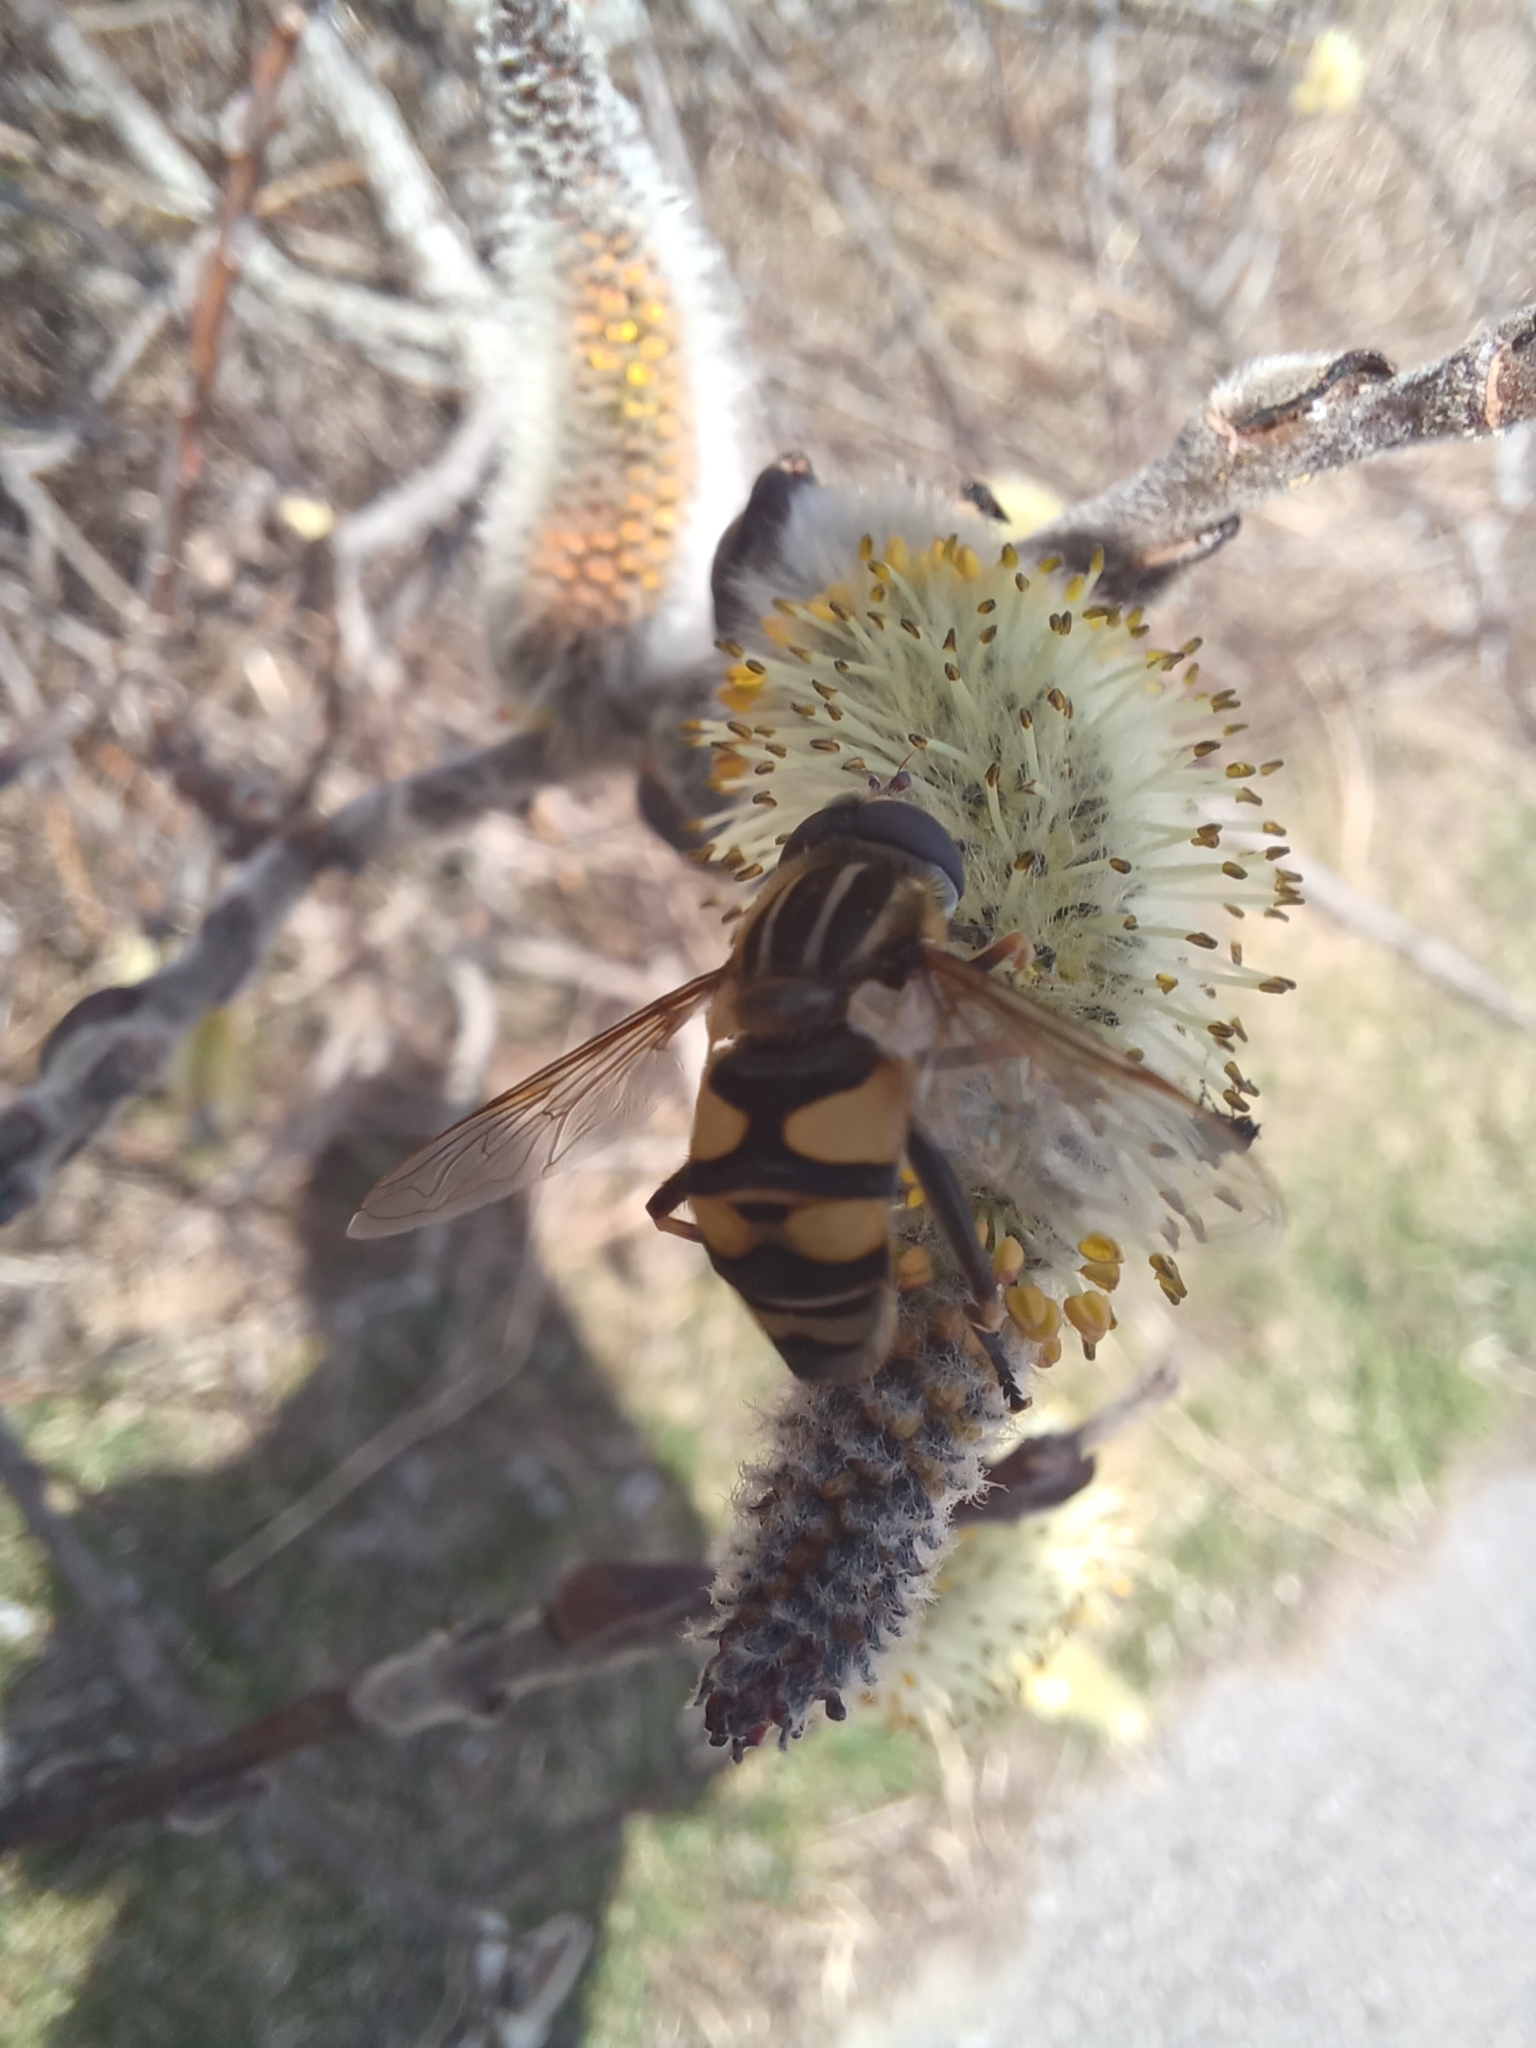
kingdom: Animalia
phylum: Arthropoda
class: Insecta
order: Diptera
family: Syrphidae
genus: Helophilus
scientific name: Helophilus fasciatus
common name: Narrow-headed marsh fly
